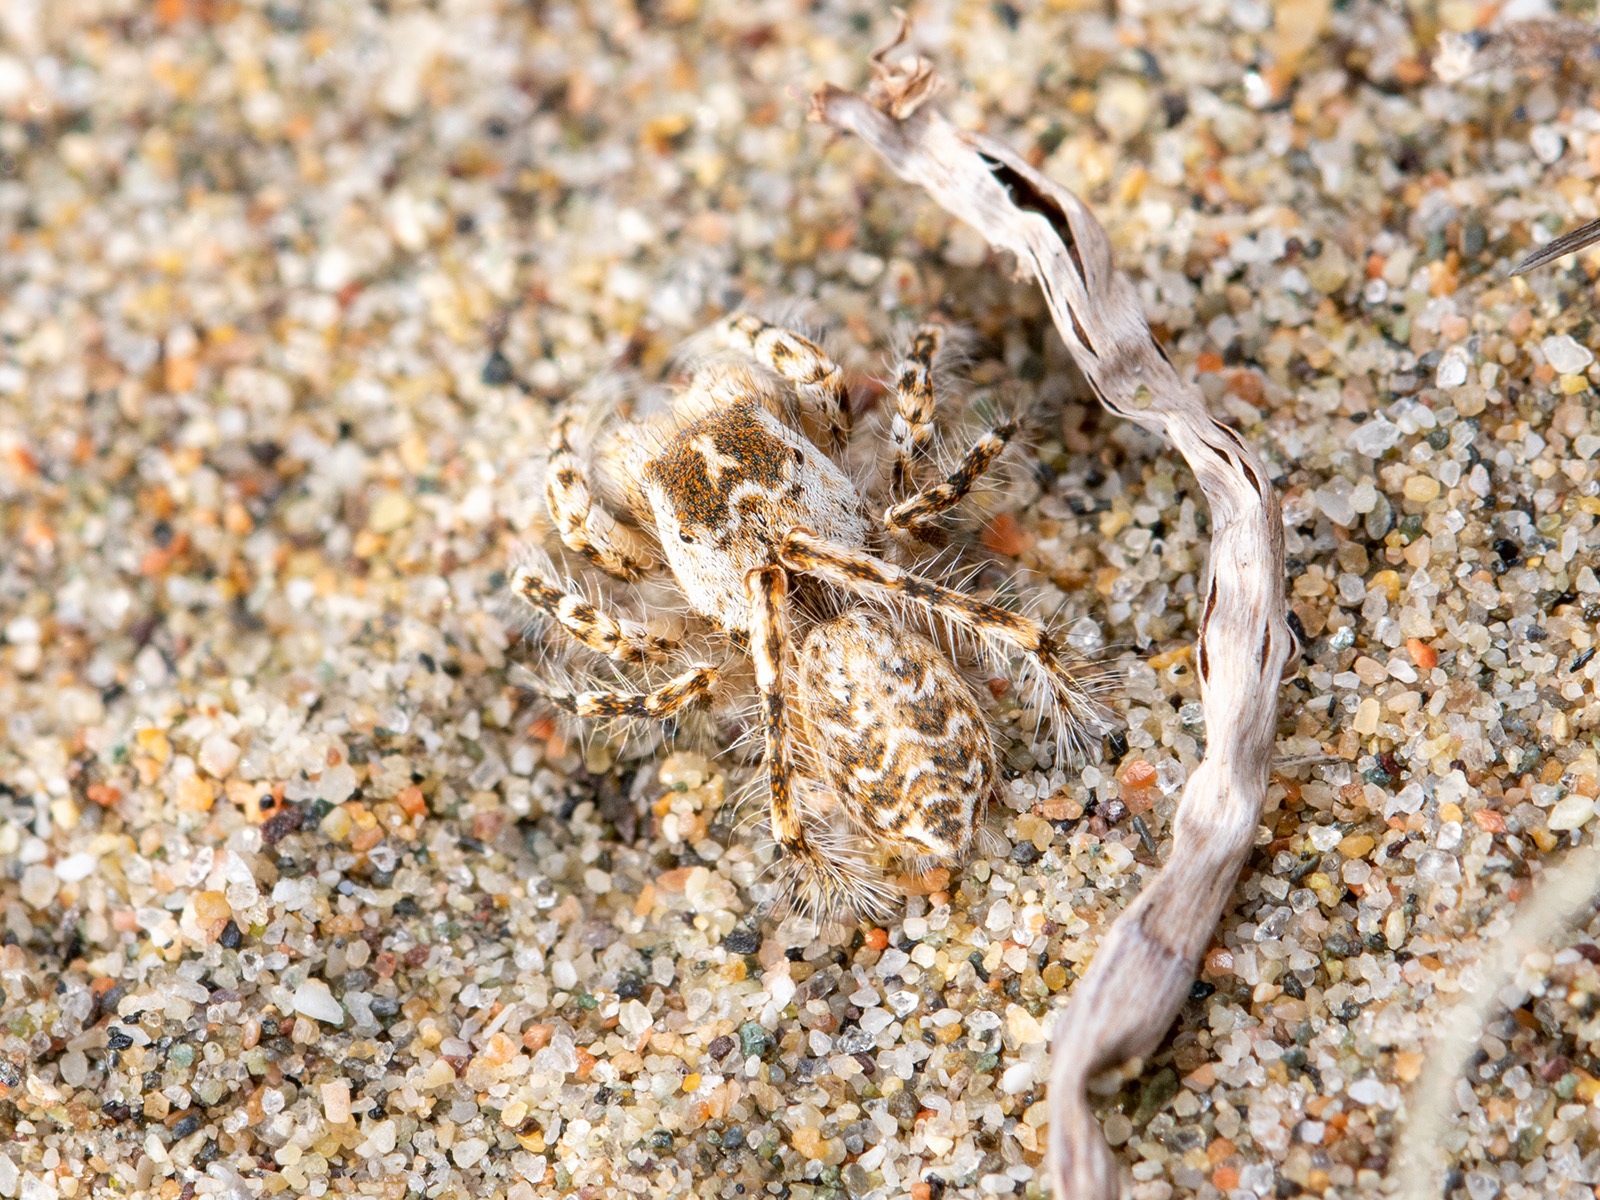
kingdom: Animalia
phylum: Arthropoda
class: Arachnida
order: Araneae
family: Salticidae
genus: Yllenus
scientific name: Yllenus turkestanicus
